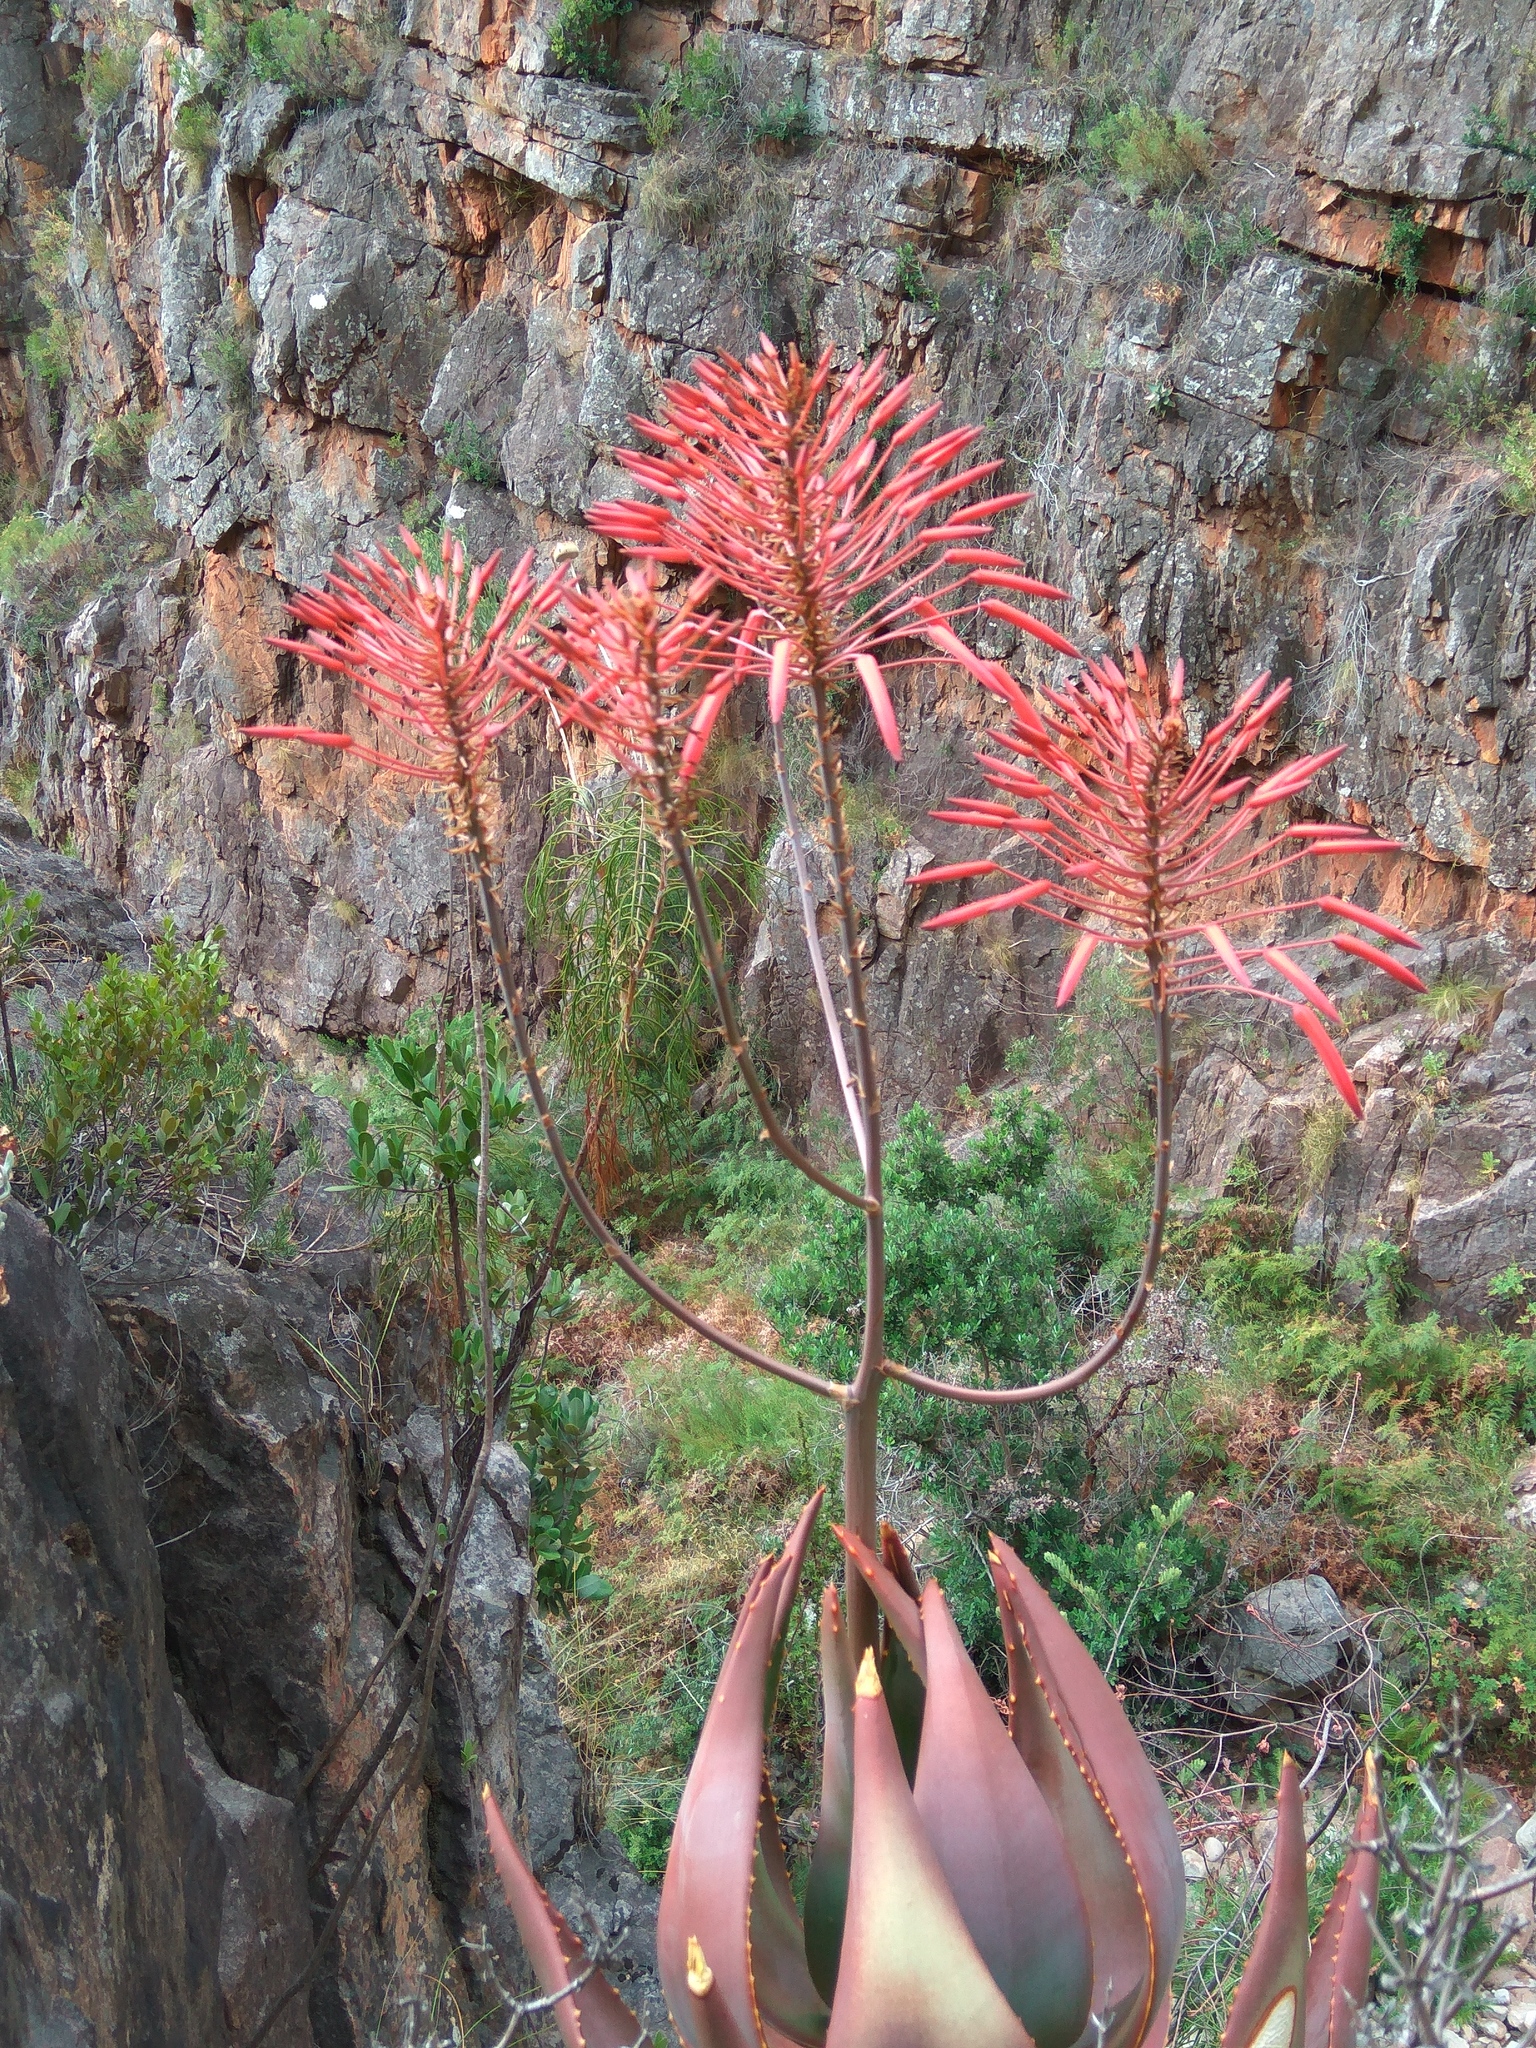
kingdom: Plantae
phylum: Tracheophyta
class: Liliopsida
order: Asparagales
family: Asphodelaceae
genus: Aloe
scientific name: Aloe perfoliata
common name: Mitra aloe
